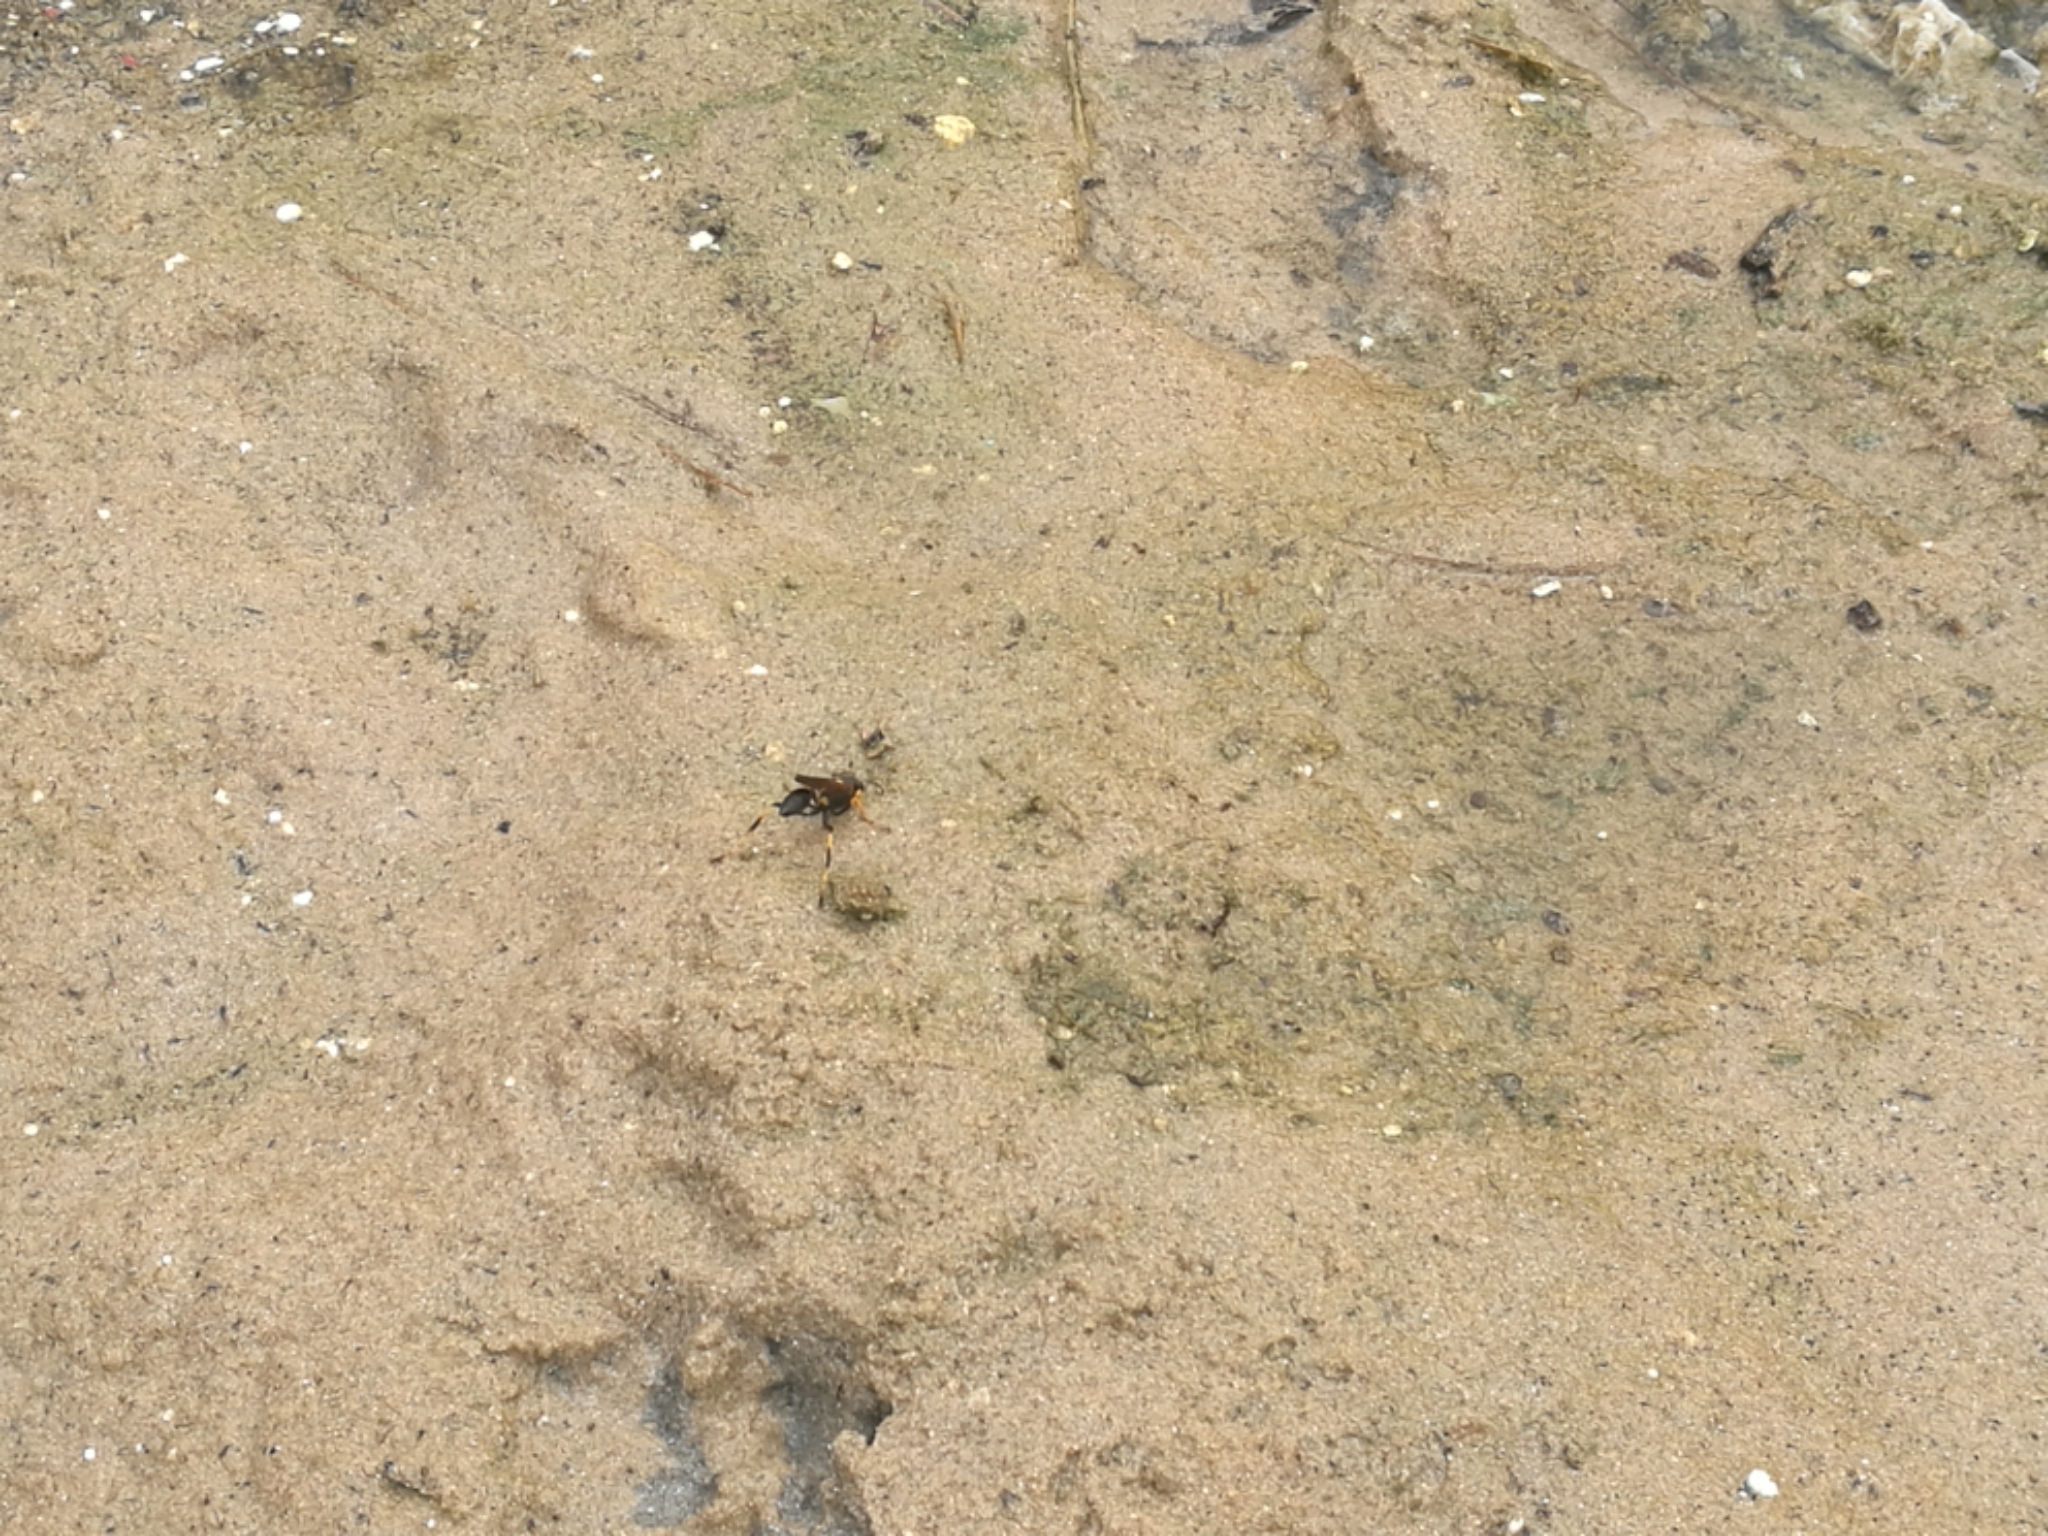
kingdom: Animalia
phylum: Arthropoda
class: Insecta
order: Hymenoptera
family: Sphecidae
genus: Sceliphron
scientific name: Sceliphron caementarium
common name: Mud dauber
